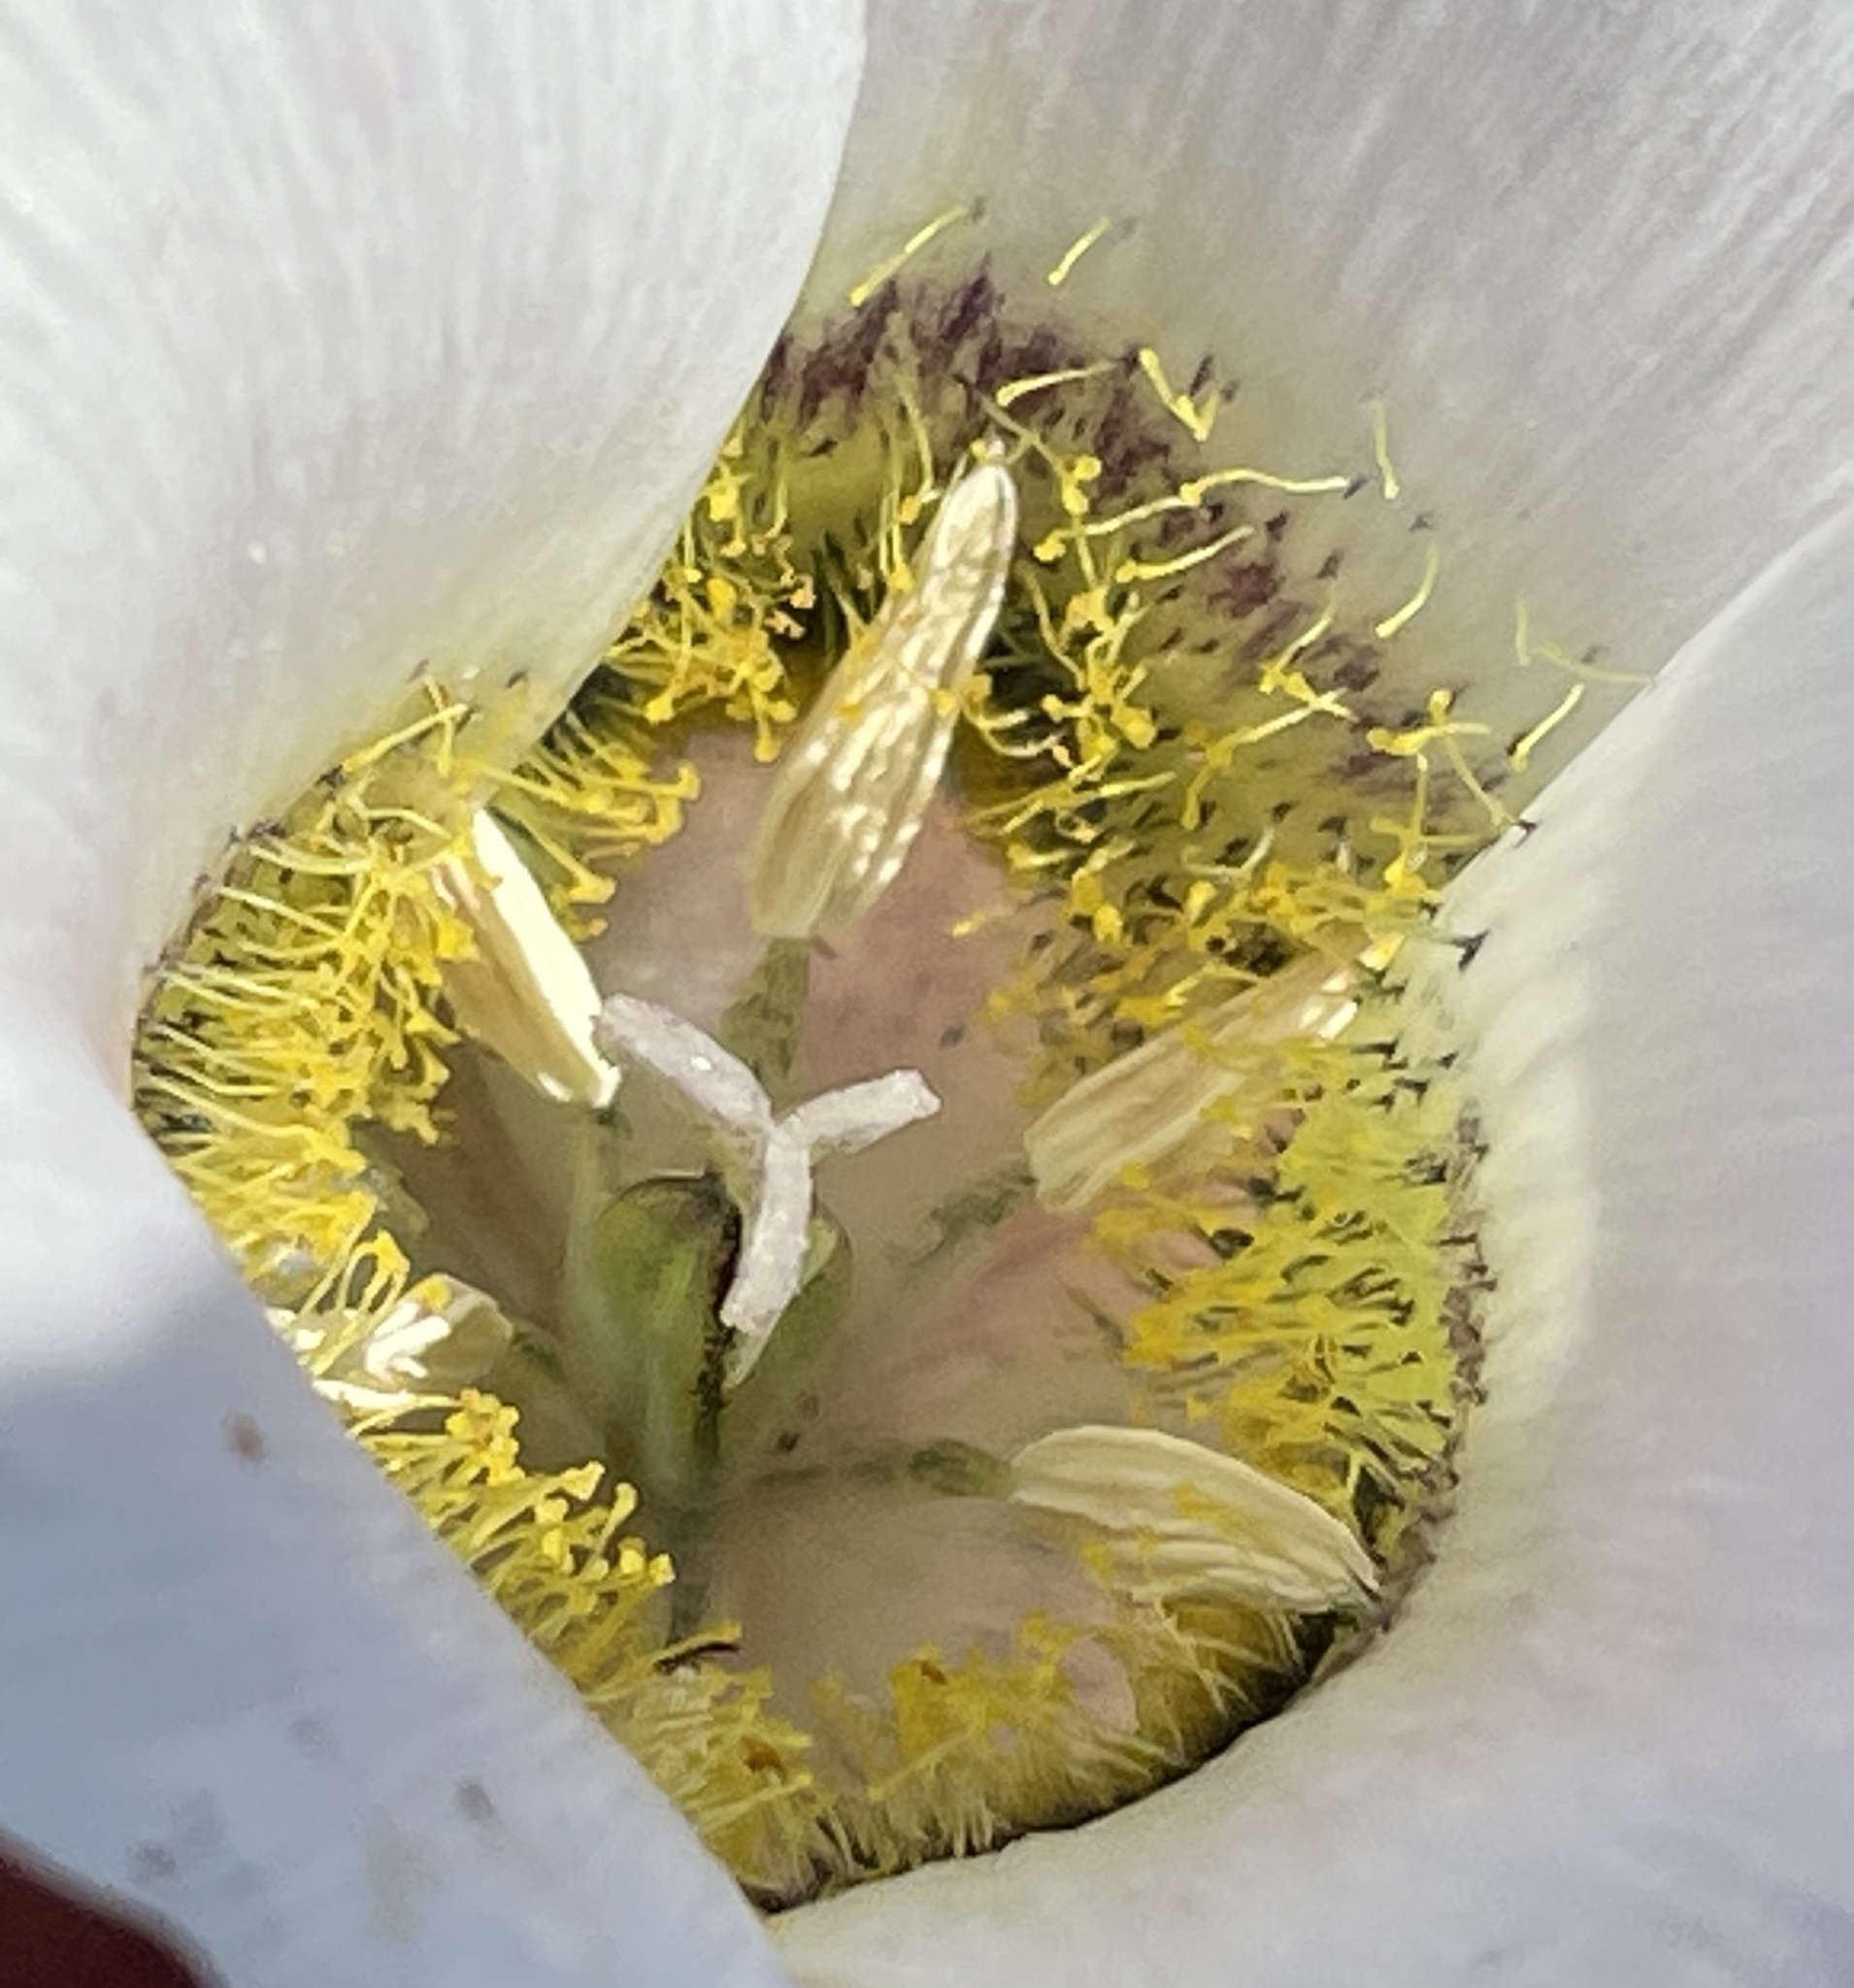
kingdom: Plantae
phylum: Tracheophyta
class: Liliopsida
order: Liliales
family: Liliaceae
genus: Calochortus
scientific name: Calochortus gunnisonii
